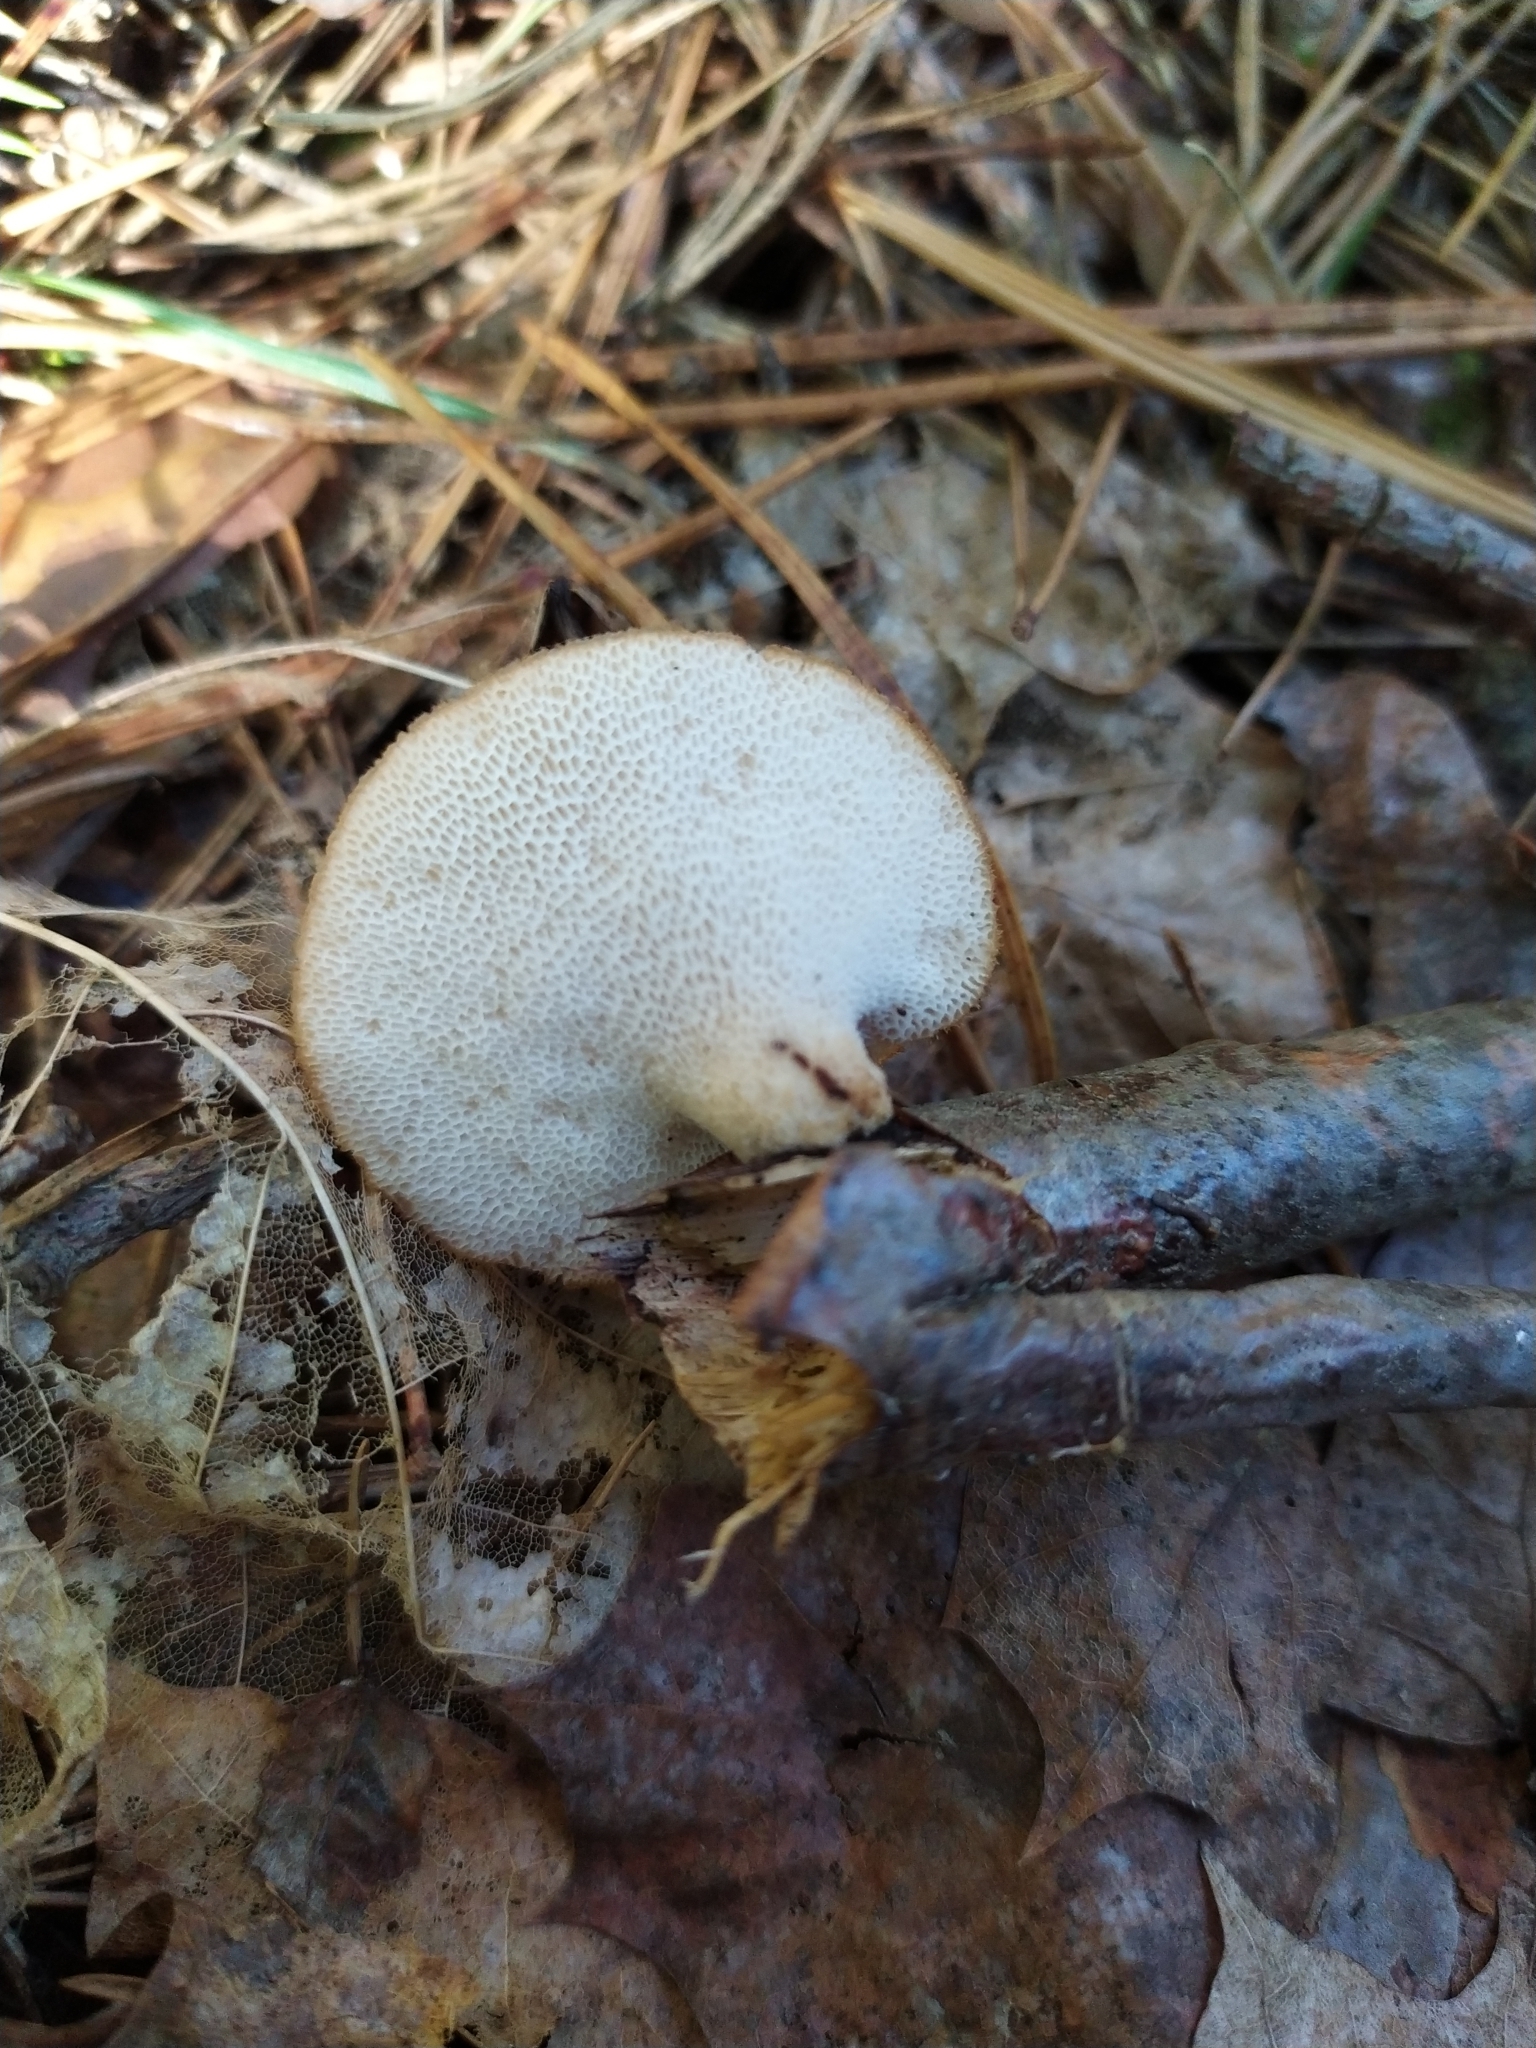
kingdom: Fungi
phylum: Basidiomycota
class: Agaricomycetes
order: Polyporales
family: Polyporaceae
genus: Polyporus
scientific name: Polyporus tuberaster
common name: Tuberous polypore
